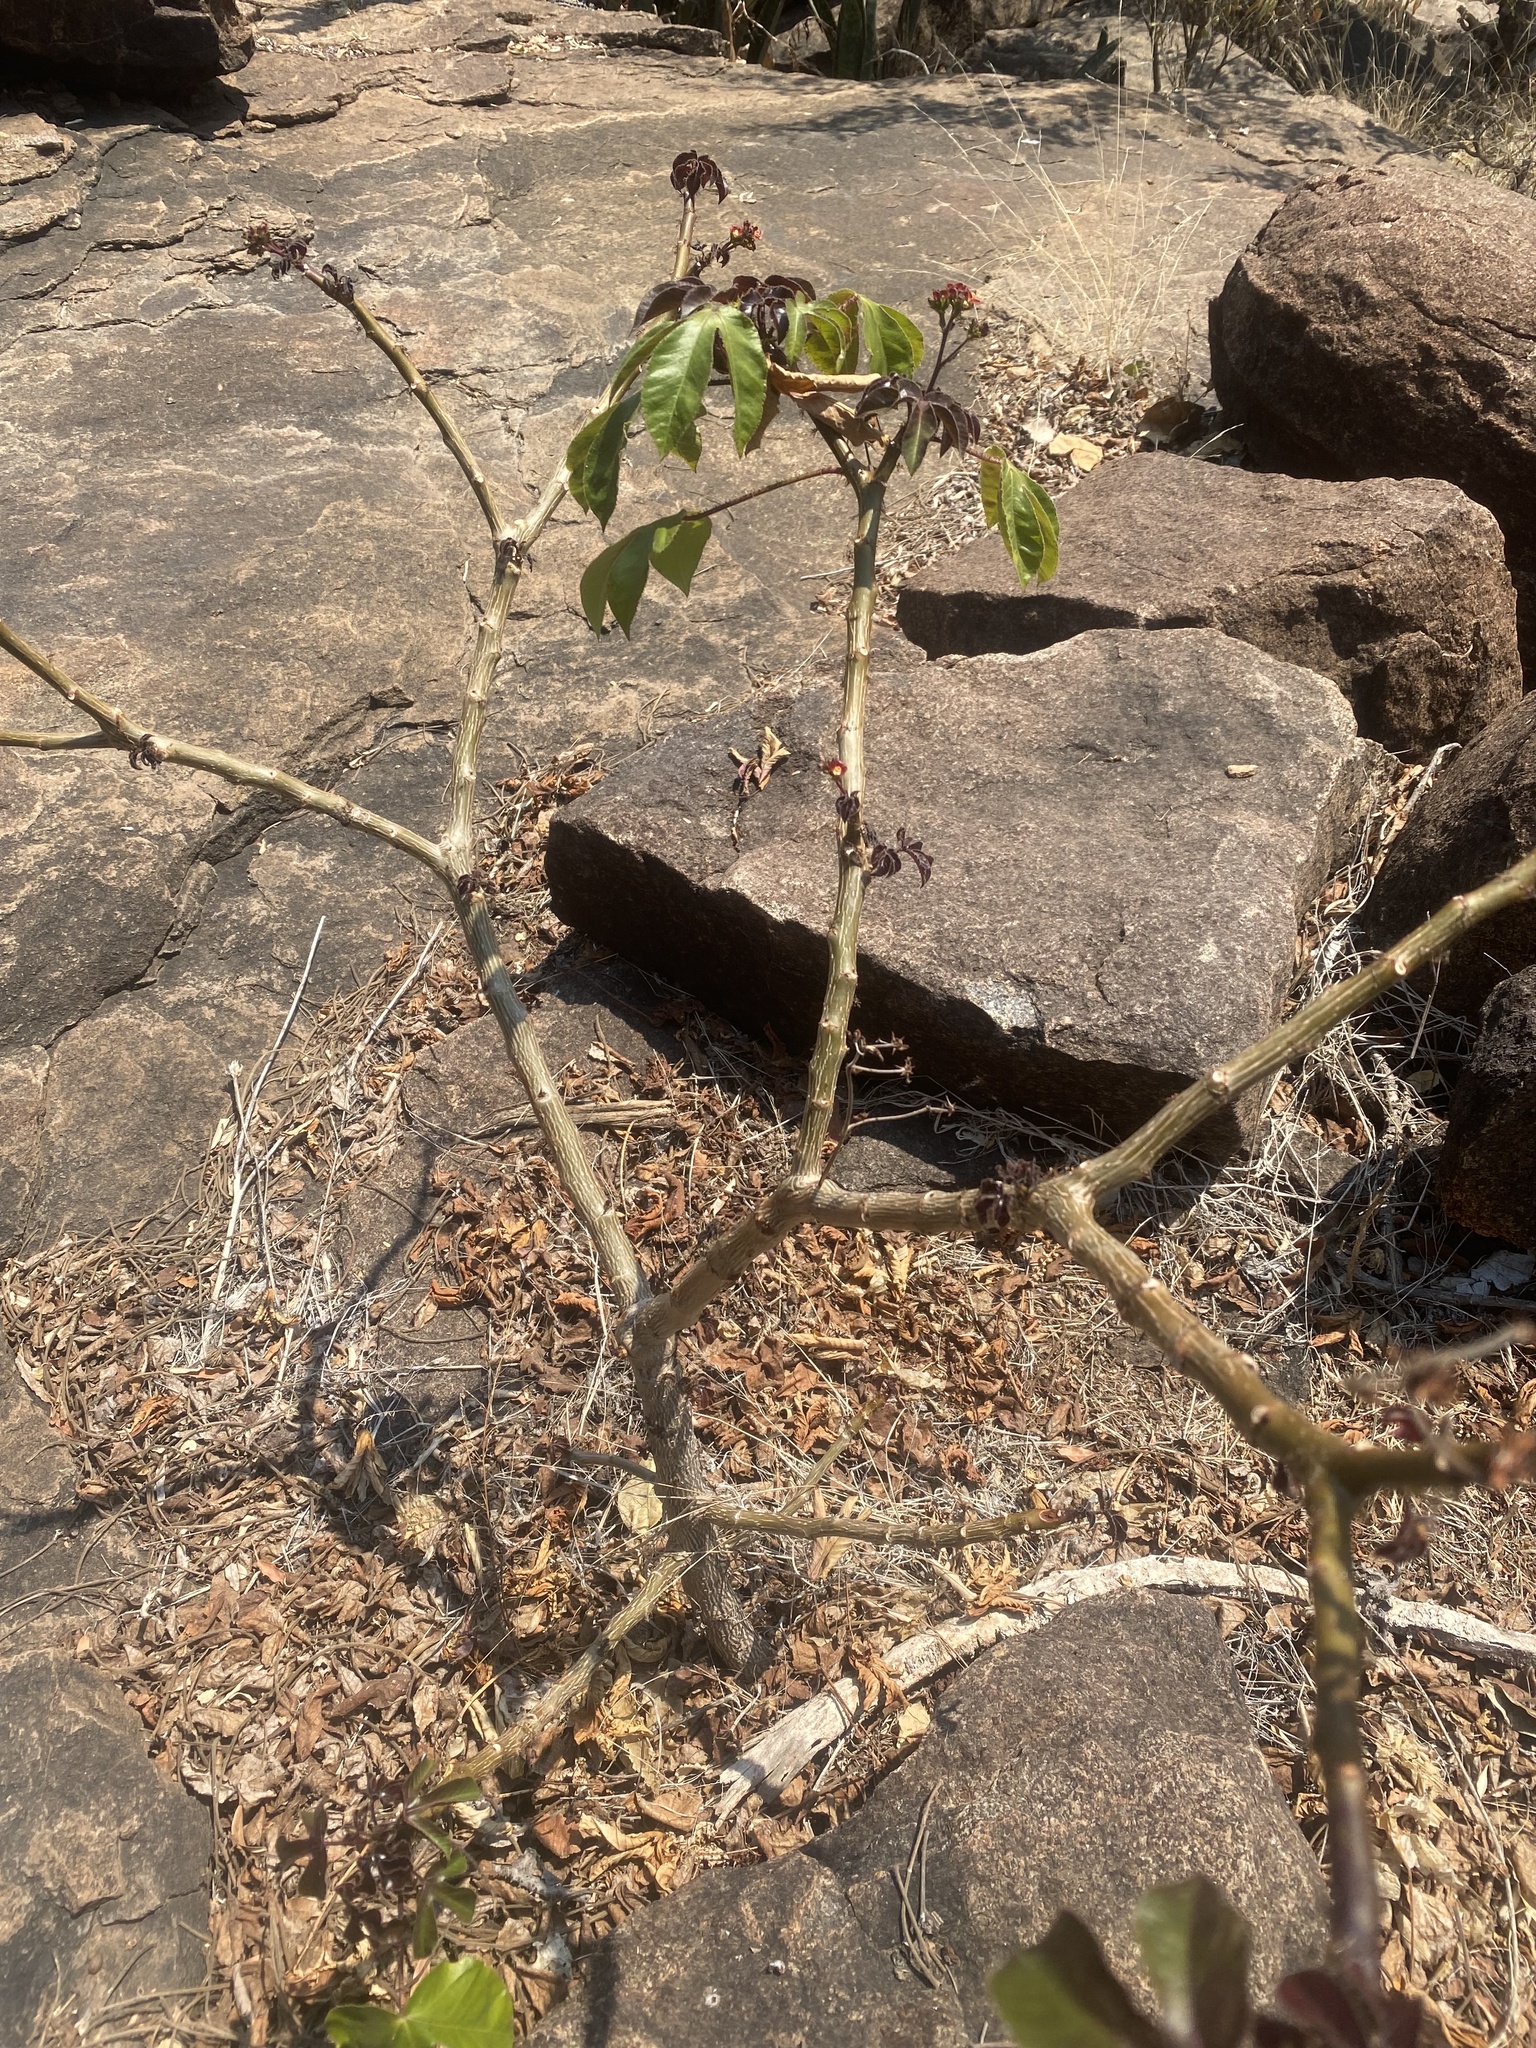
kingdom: Plantae
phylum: Tracheophyta
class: Magnoliopsida
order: Malpighiales
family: Euphorbiaceae
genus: Jatropha
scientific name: Jatropha gossypiifolia
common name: Bellyache bush
